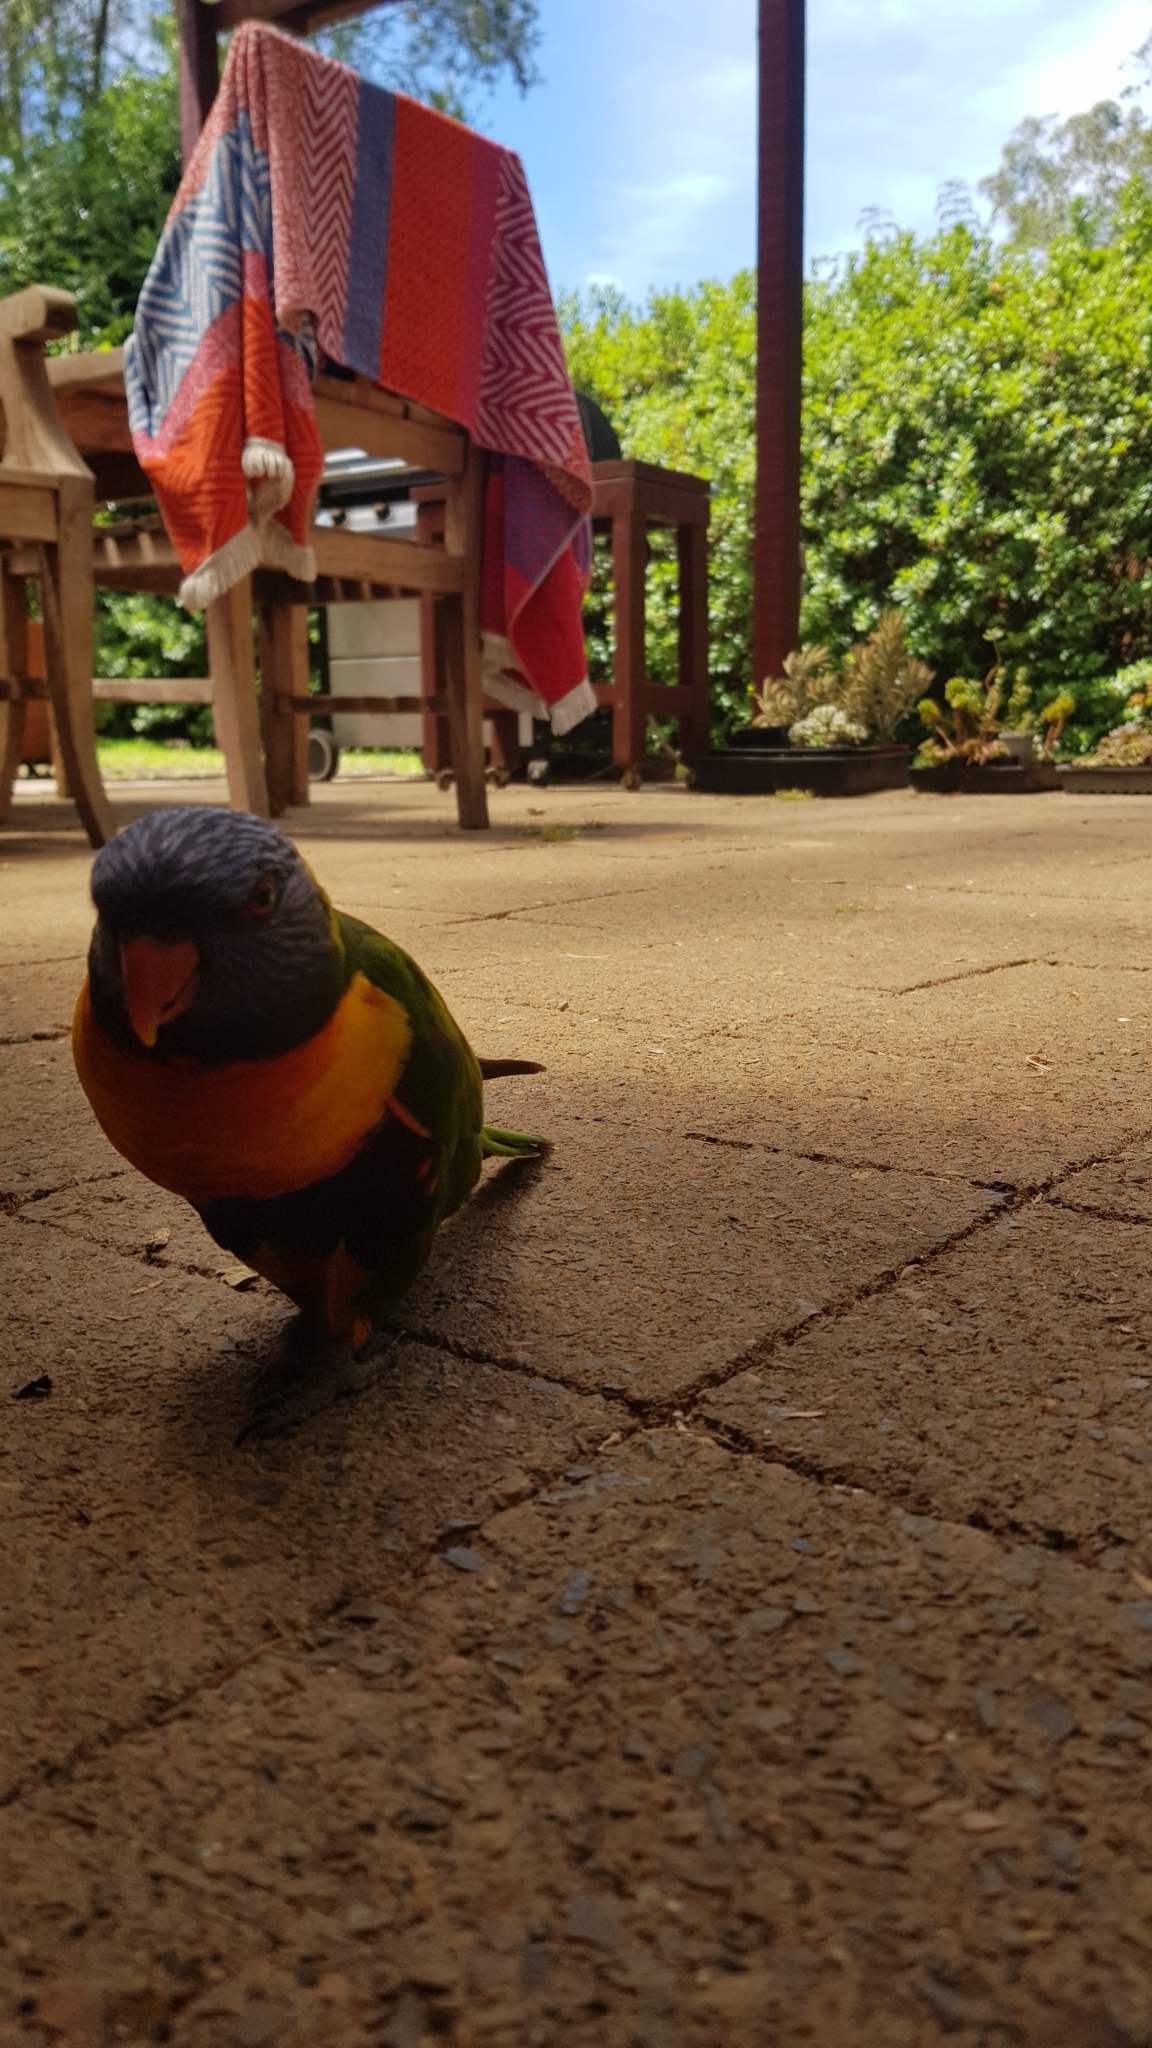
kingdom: Animalia
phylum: Chordata
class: Aves
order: Psittaciformes
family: Psittacidae
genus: Trichoglossus
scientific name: Trichoglossus haematodus
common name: Coconut lorikeet
